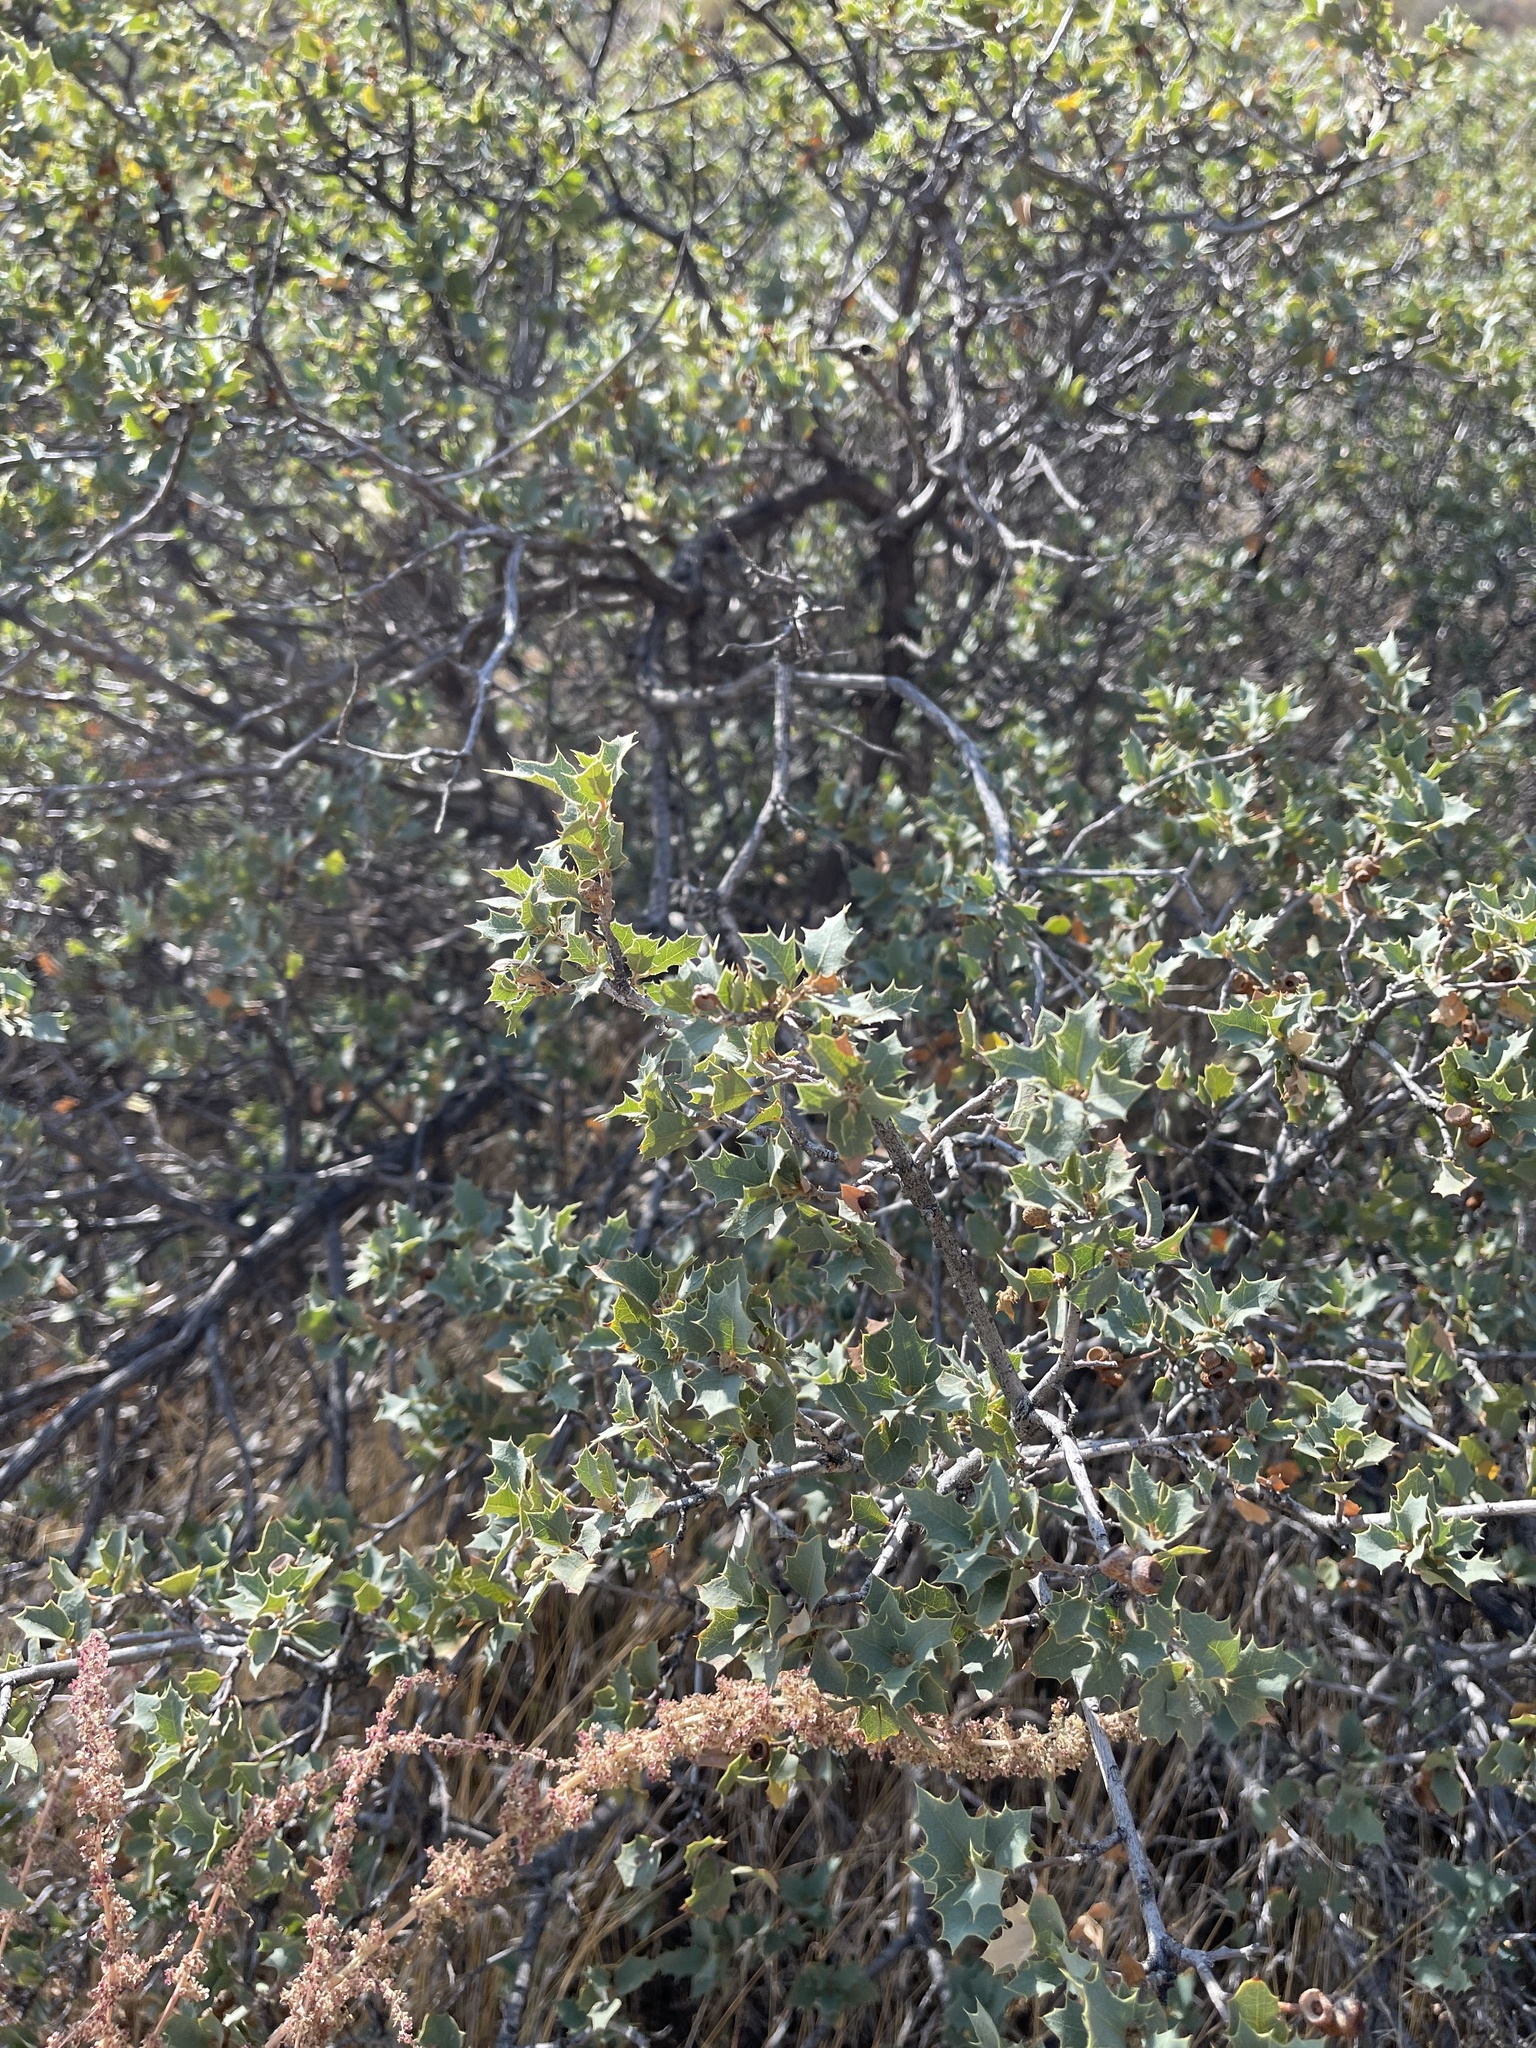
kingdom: Plantae
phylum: Tracheophyta
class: Magnoliopsida
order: Fagales
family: Fagaceae
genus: Quercus
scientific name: Quercus turbinella
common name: Sonoran scrub oak
